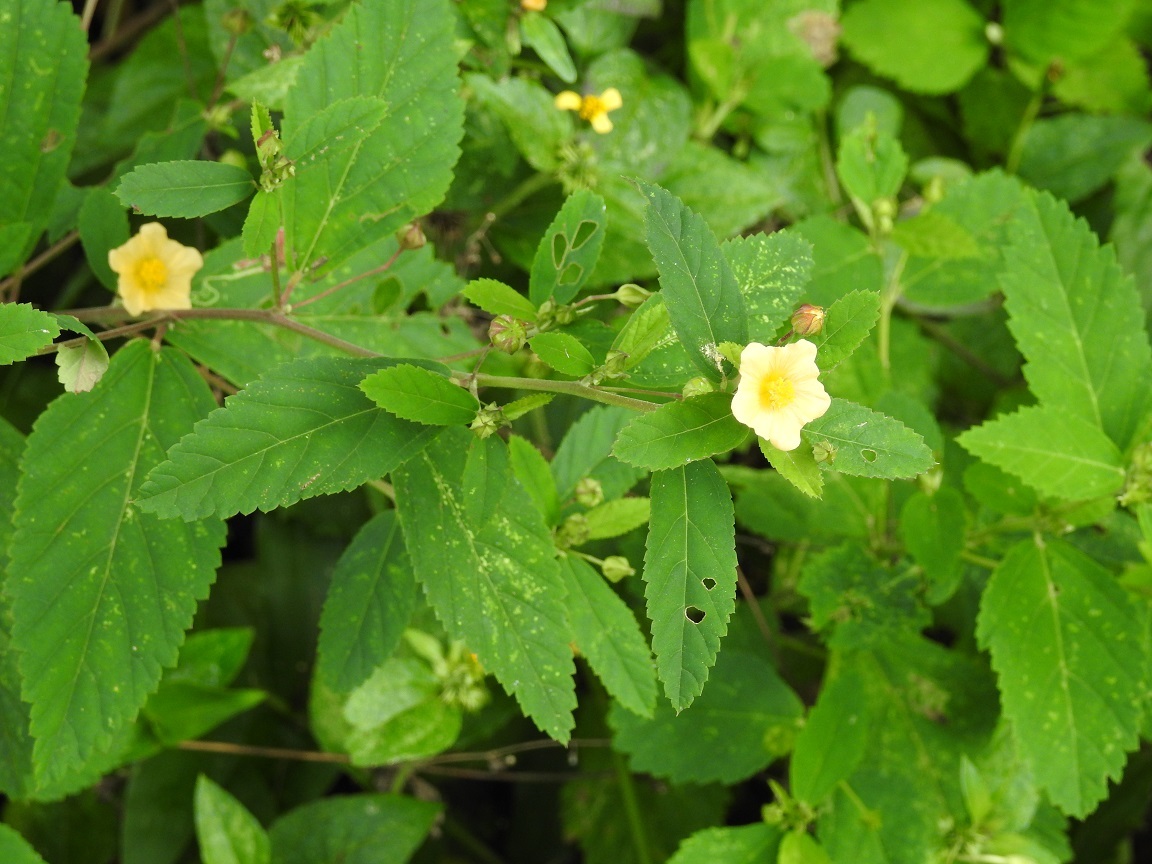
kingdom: Plantae
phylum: Tracheophyta
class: Magnoliopsida
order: Malvales
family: Malvaceae
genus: Sida
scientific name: Sida acuta
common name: Common wireweed
